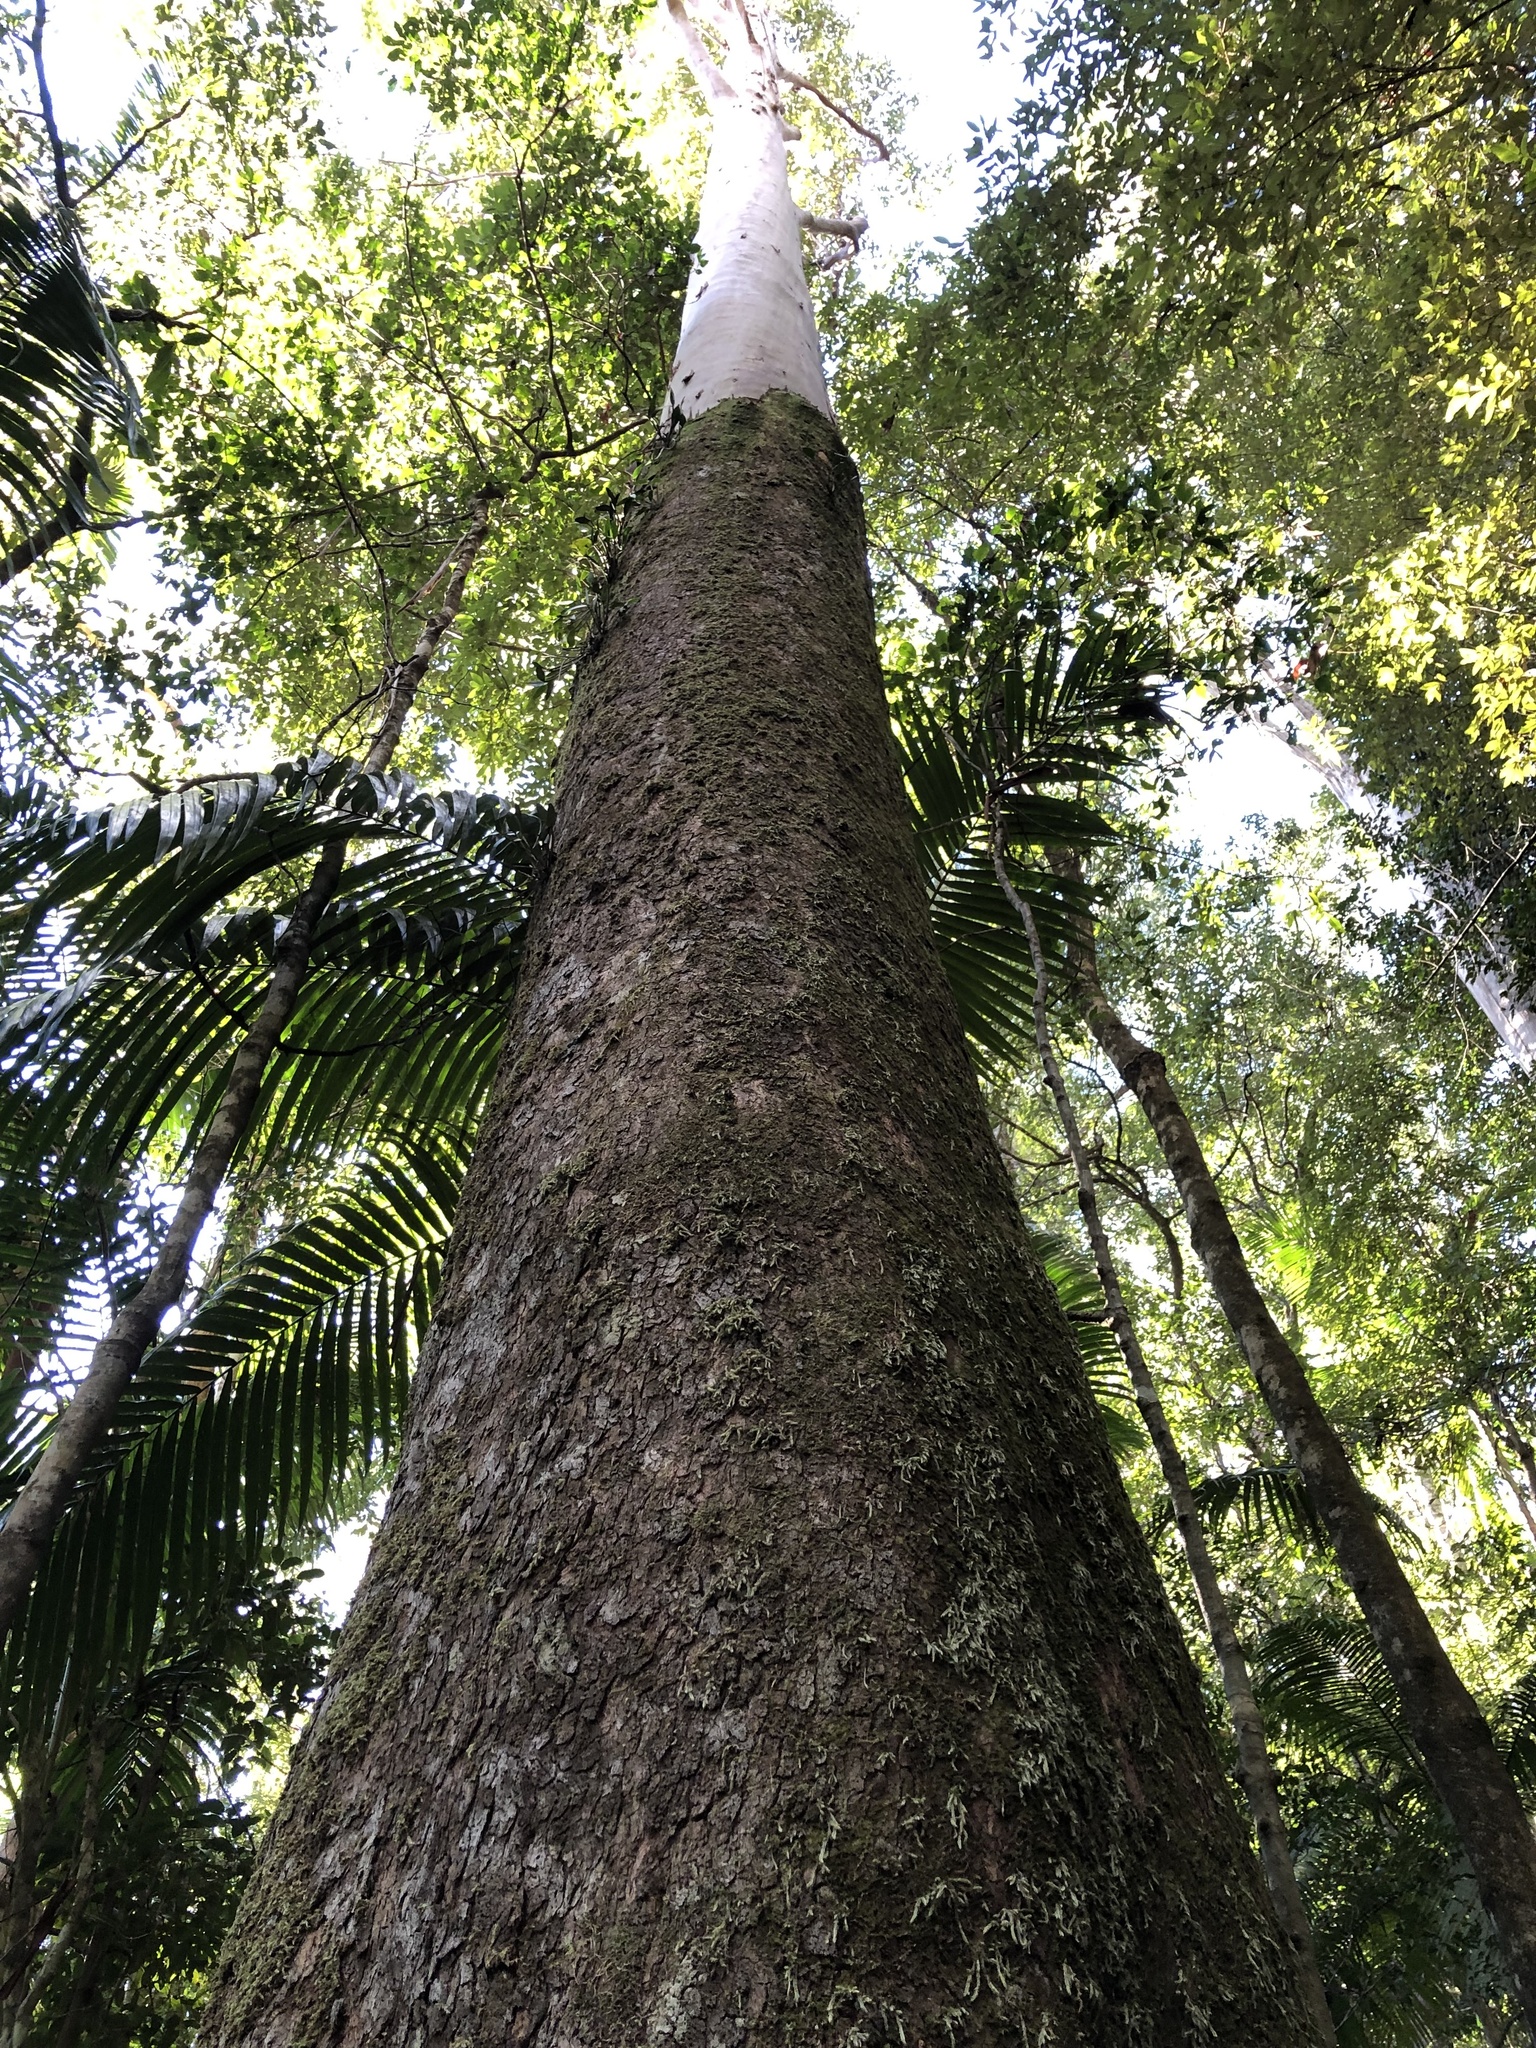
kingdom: Plantae
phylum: Tracheophyta
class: Liliopsida
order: Asparagales
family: Orchidaceae
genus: Dendrobium
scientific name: Dendrobium aemulum
